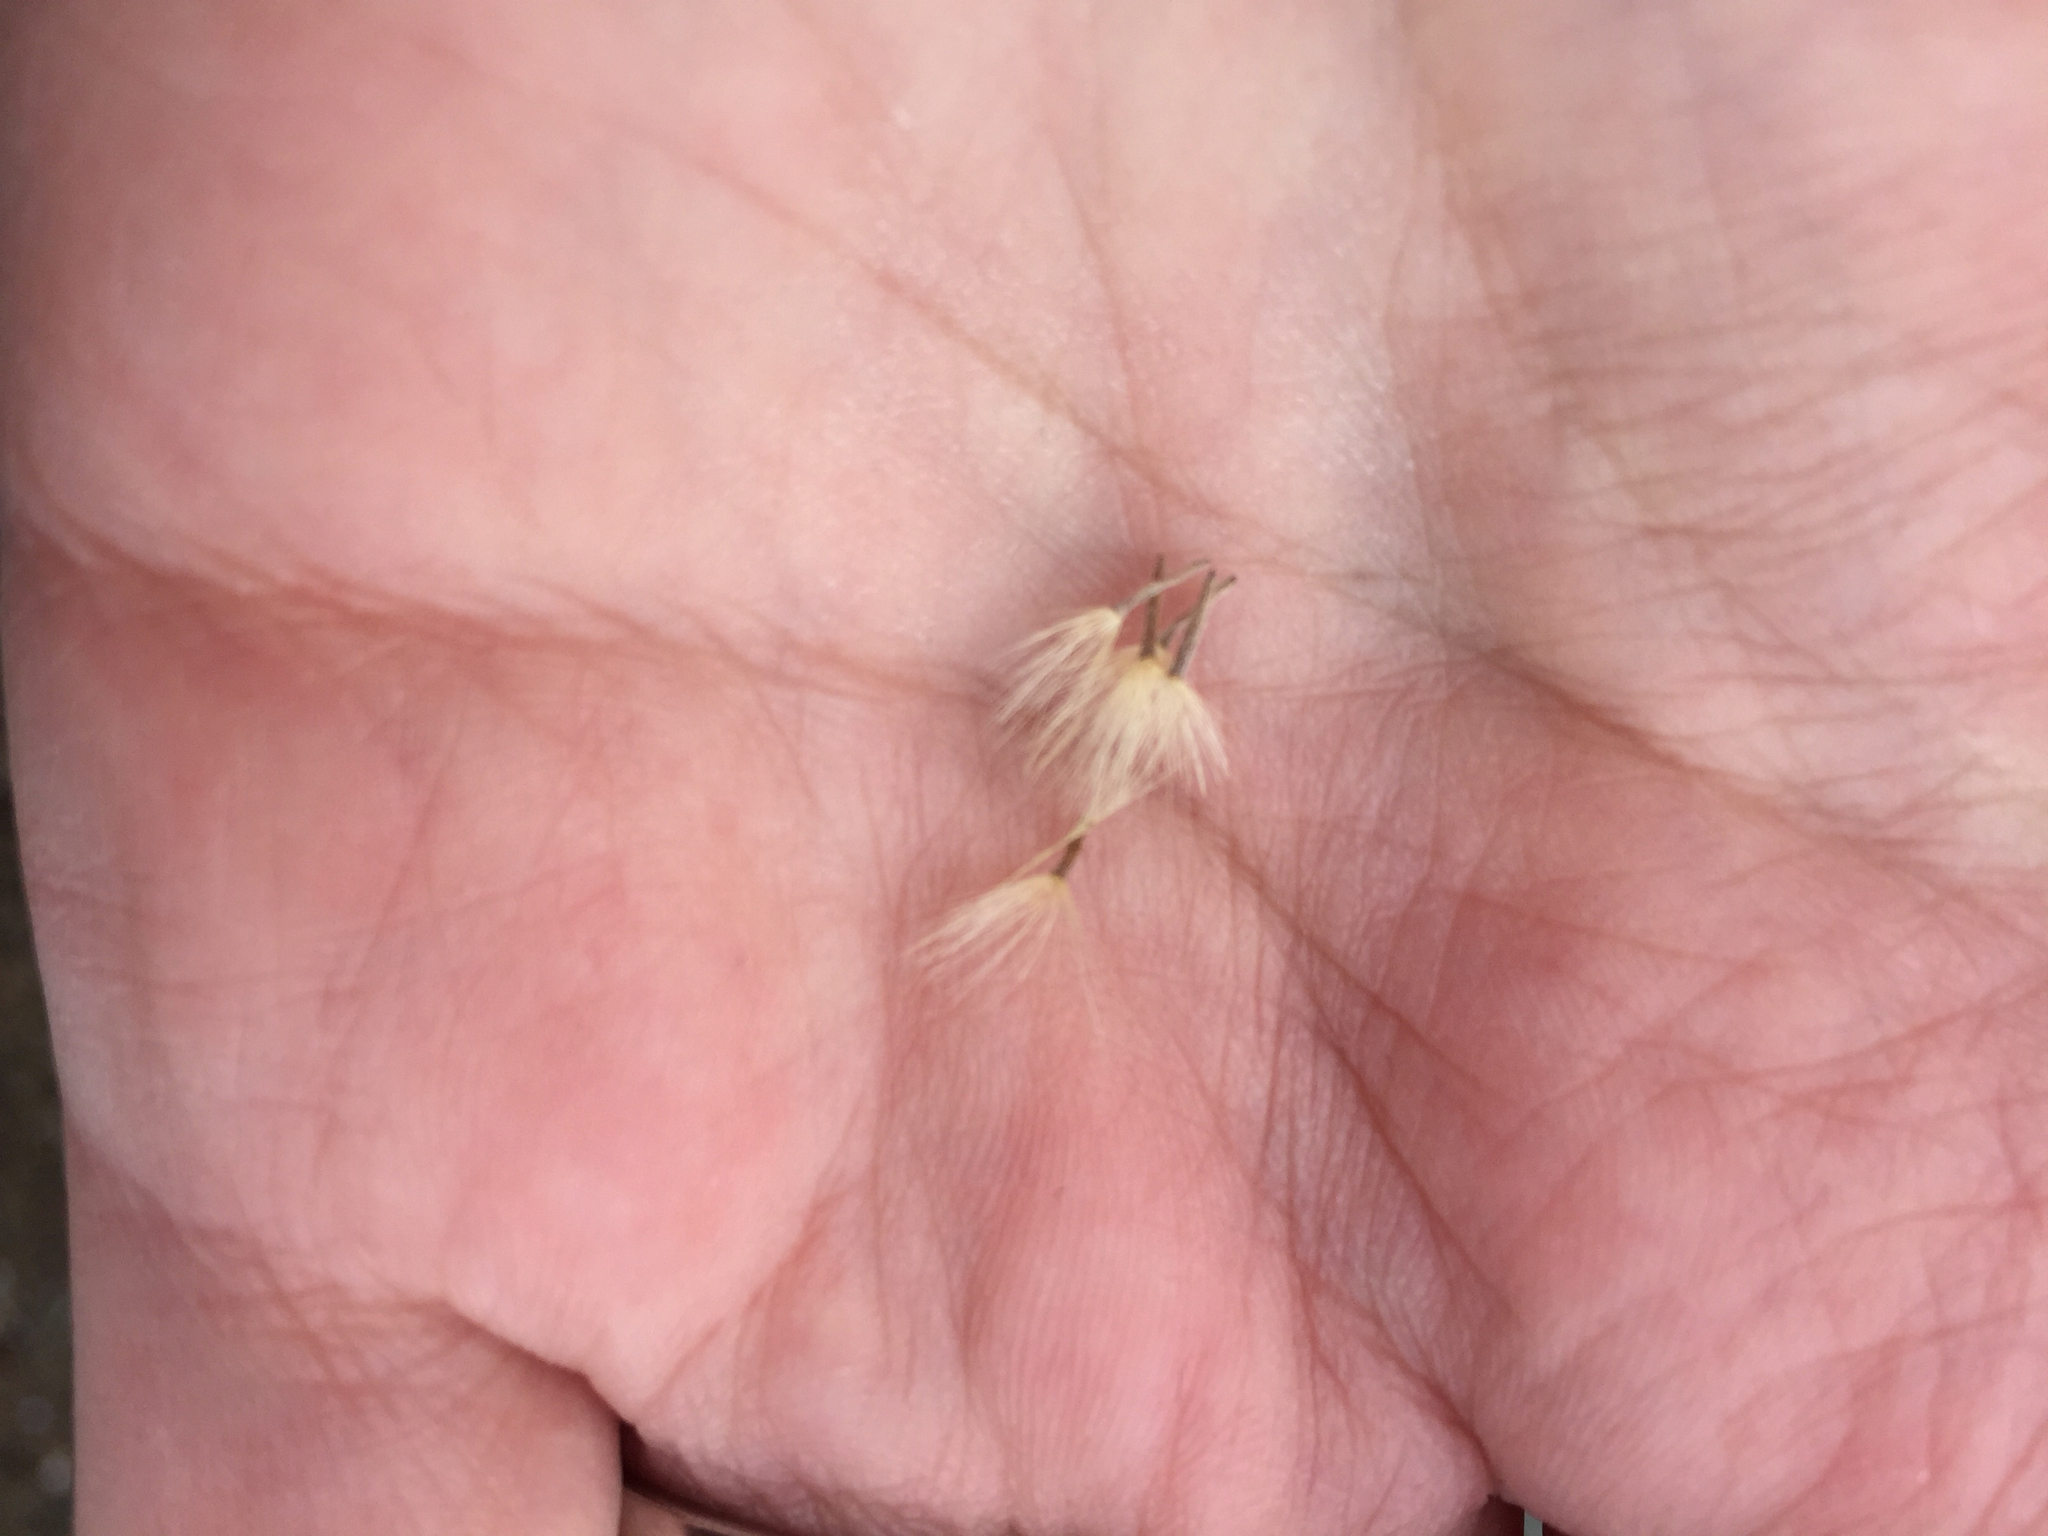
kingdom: Plantae
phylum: Tracheophyta
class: Magnoliopsida
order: Asterales
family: Asteraceae
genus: Ericameria
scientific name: Ericameria nauseosa
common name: Rubber rabbitbrush
